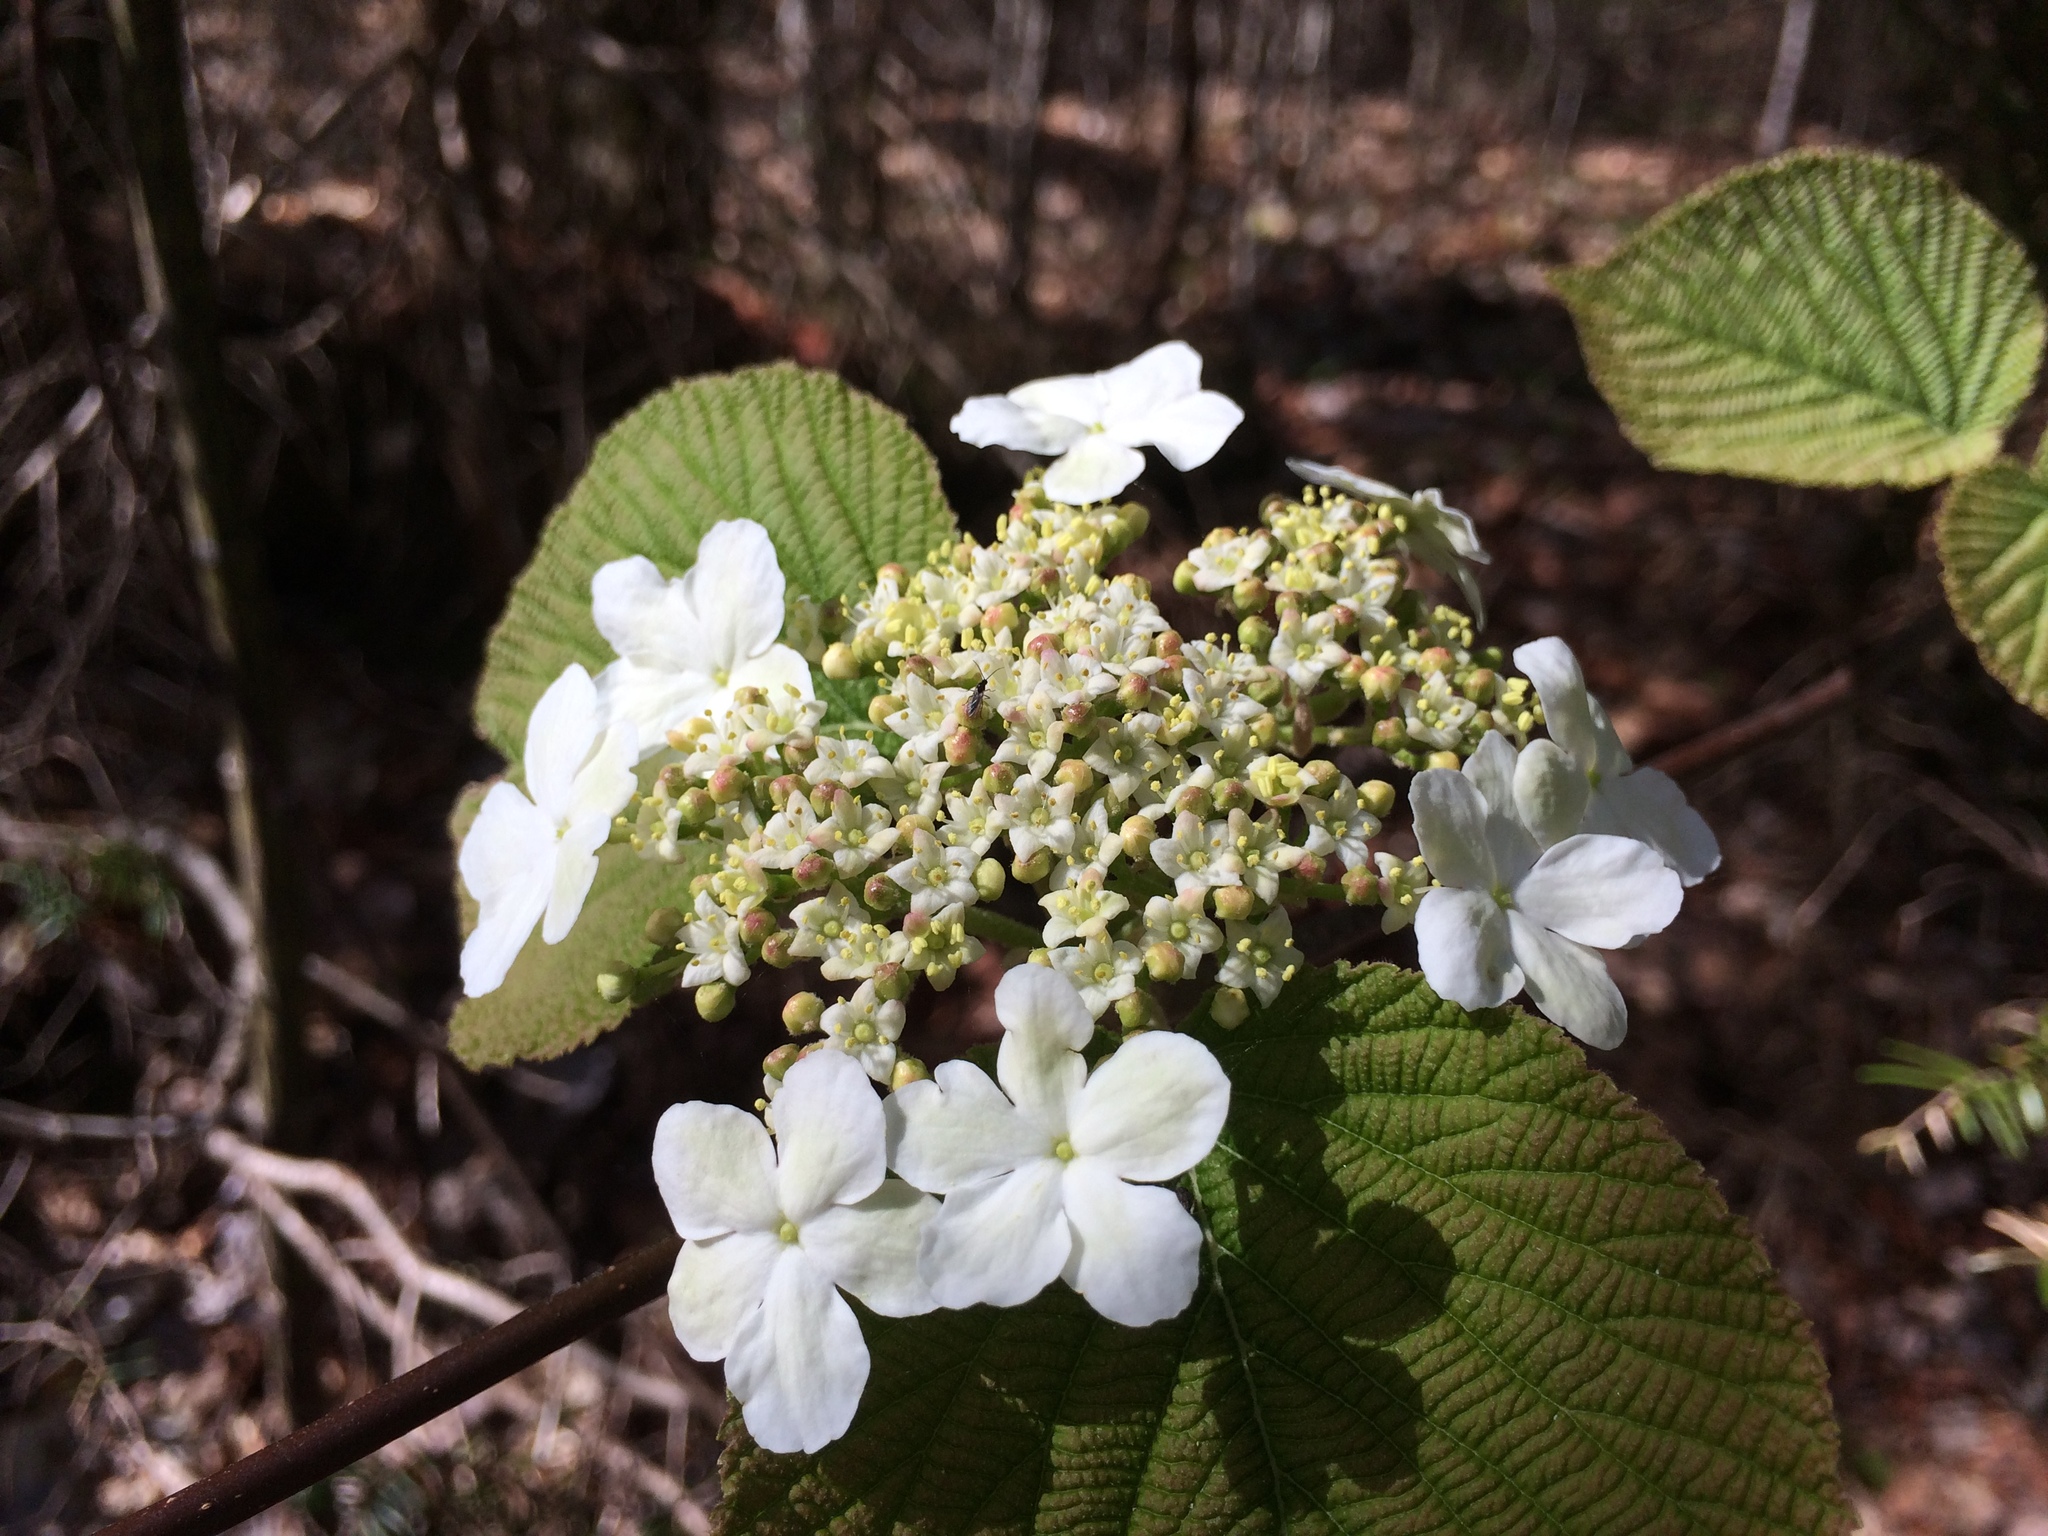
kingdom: Plantae
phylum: Tracheophyta
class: Magnoliopsida
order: Dipsacales
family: Viburnaceae
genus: Viburnum
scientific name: Viburnum lantanoides
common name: Hobblebush
